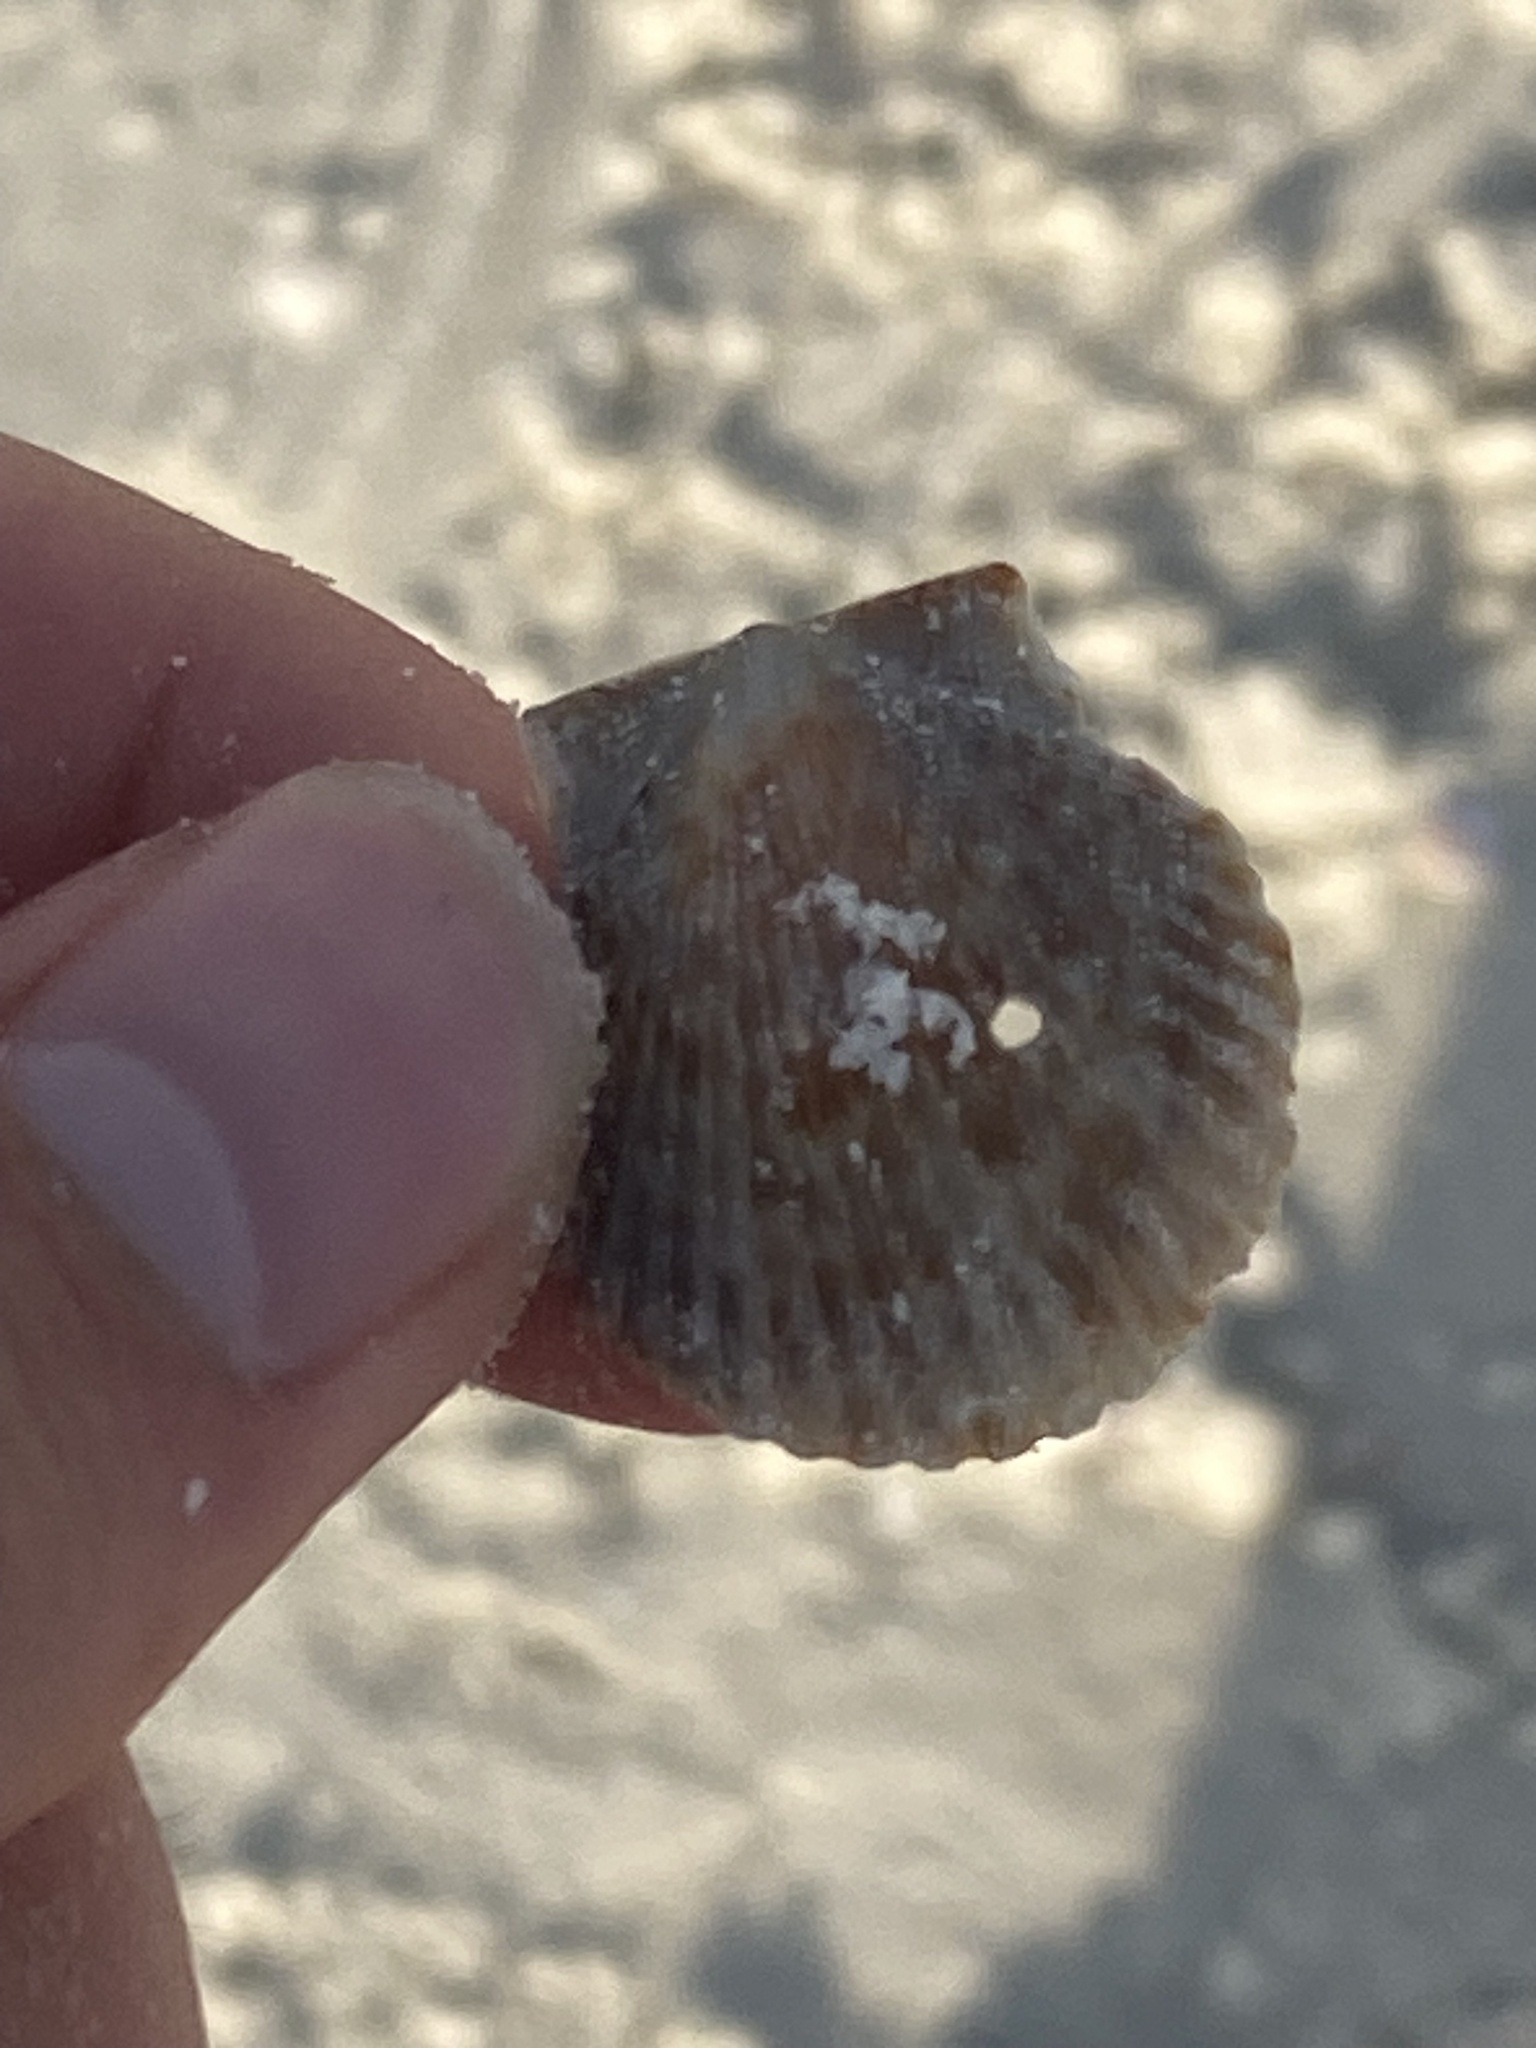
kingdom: Animalia
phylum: Mollusca
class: Bivalvia
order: Pectinida
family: Pectinidae
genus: Argopecten
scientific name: Argopecten gibbus
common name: Atlantic calico scallop
